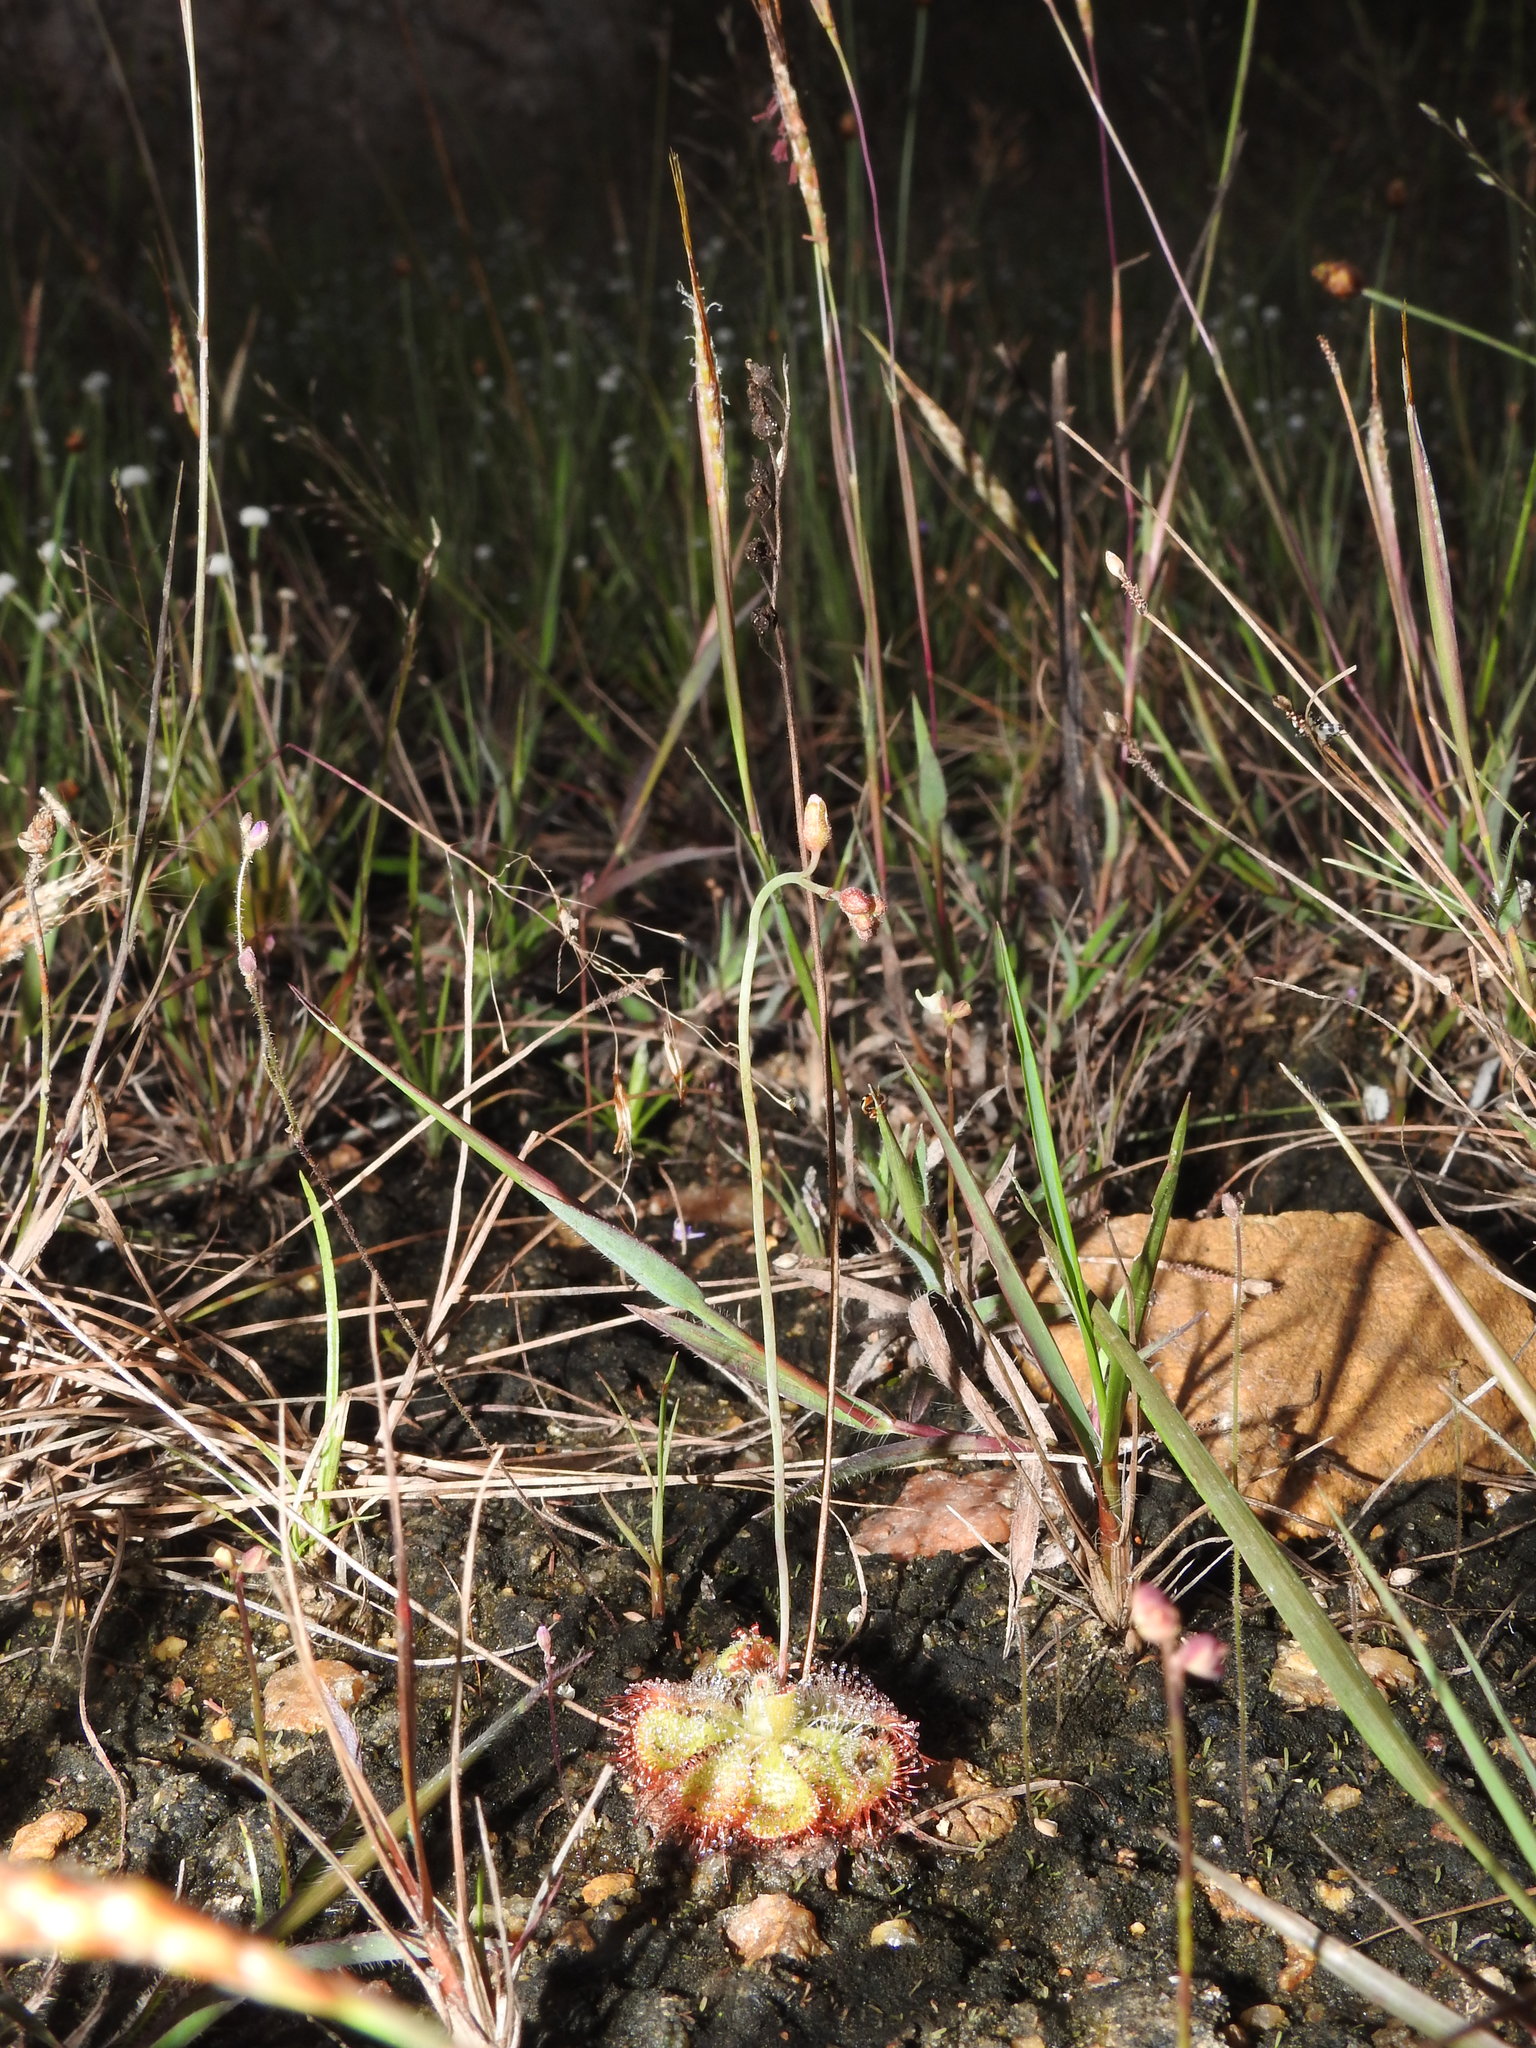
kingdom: Plantae
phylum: Tracheophyta
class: Magnoliopsida
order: Caryophyllales
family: Droseraceae
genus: Drosera
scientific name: Drosera spatulata
